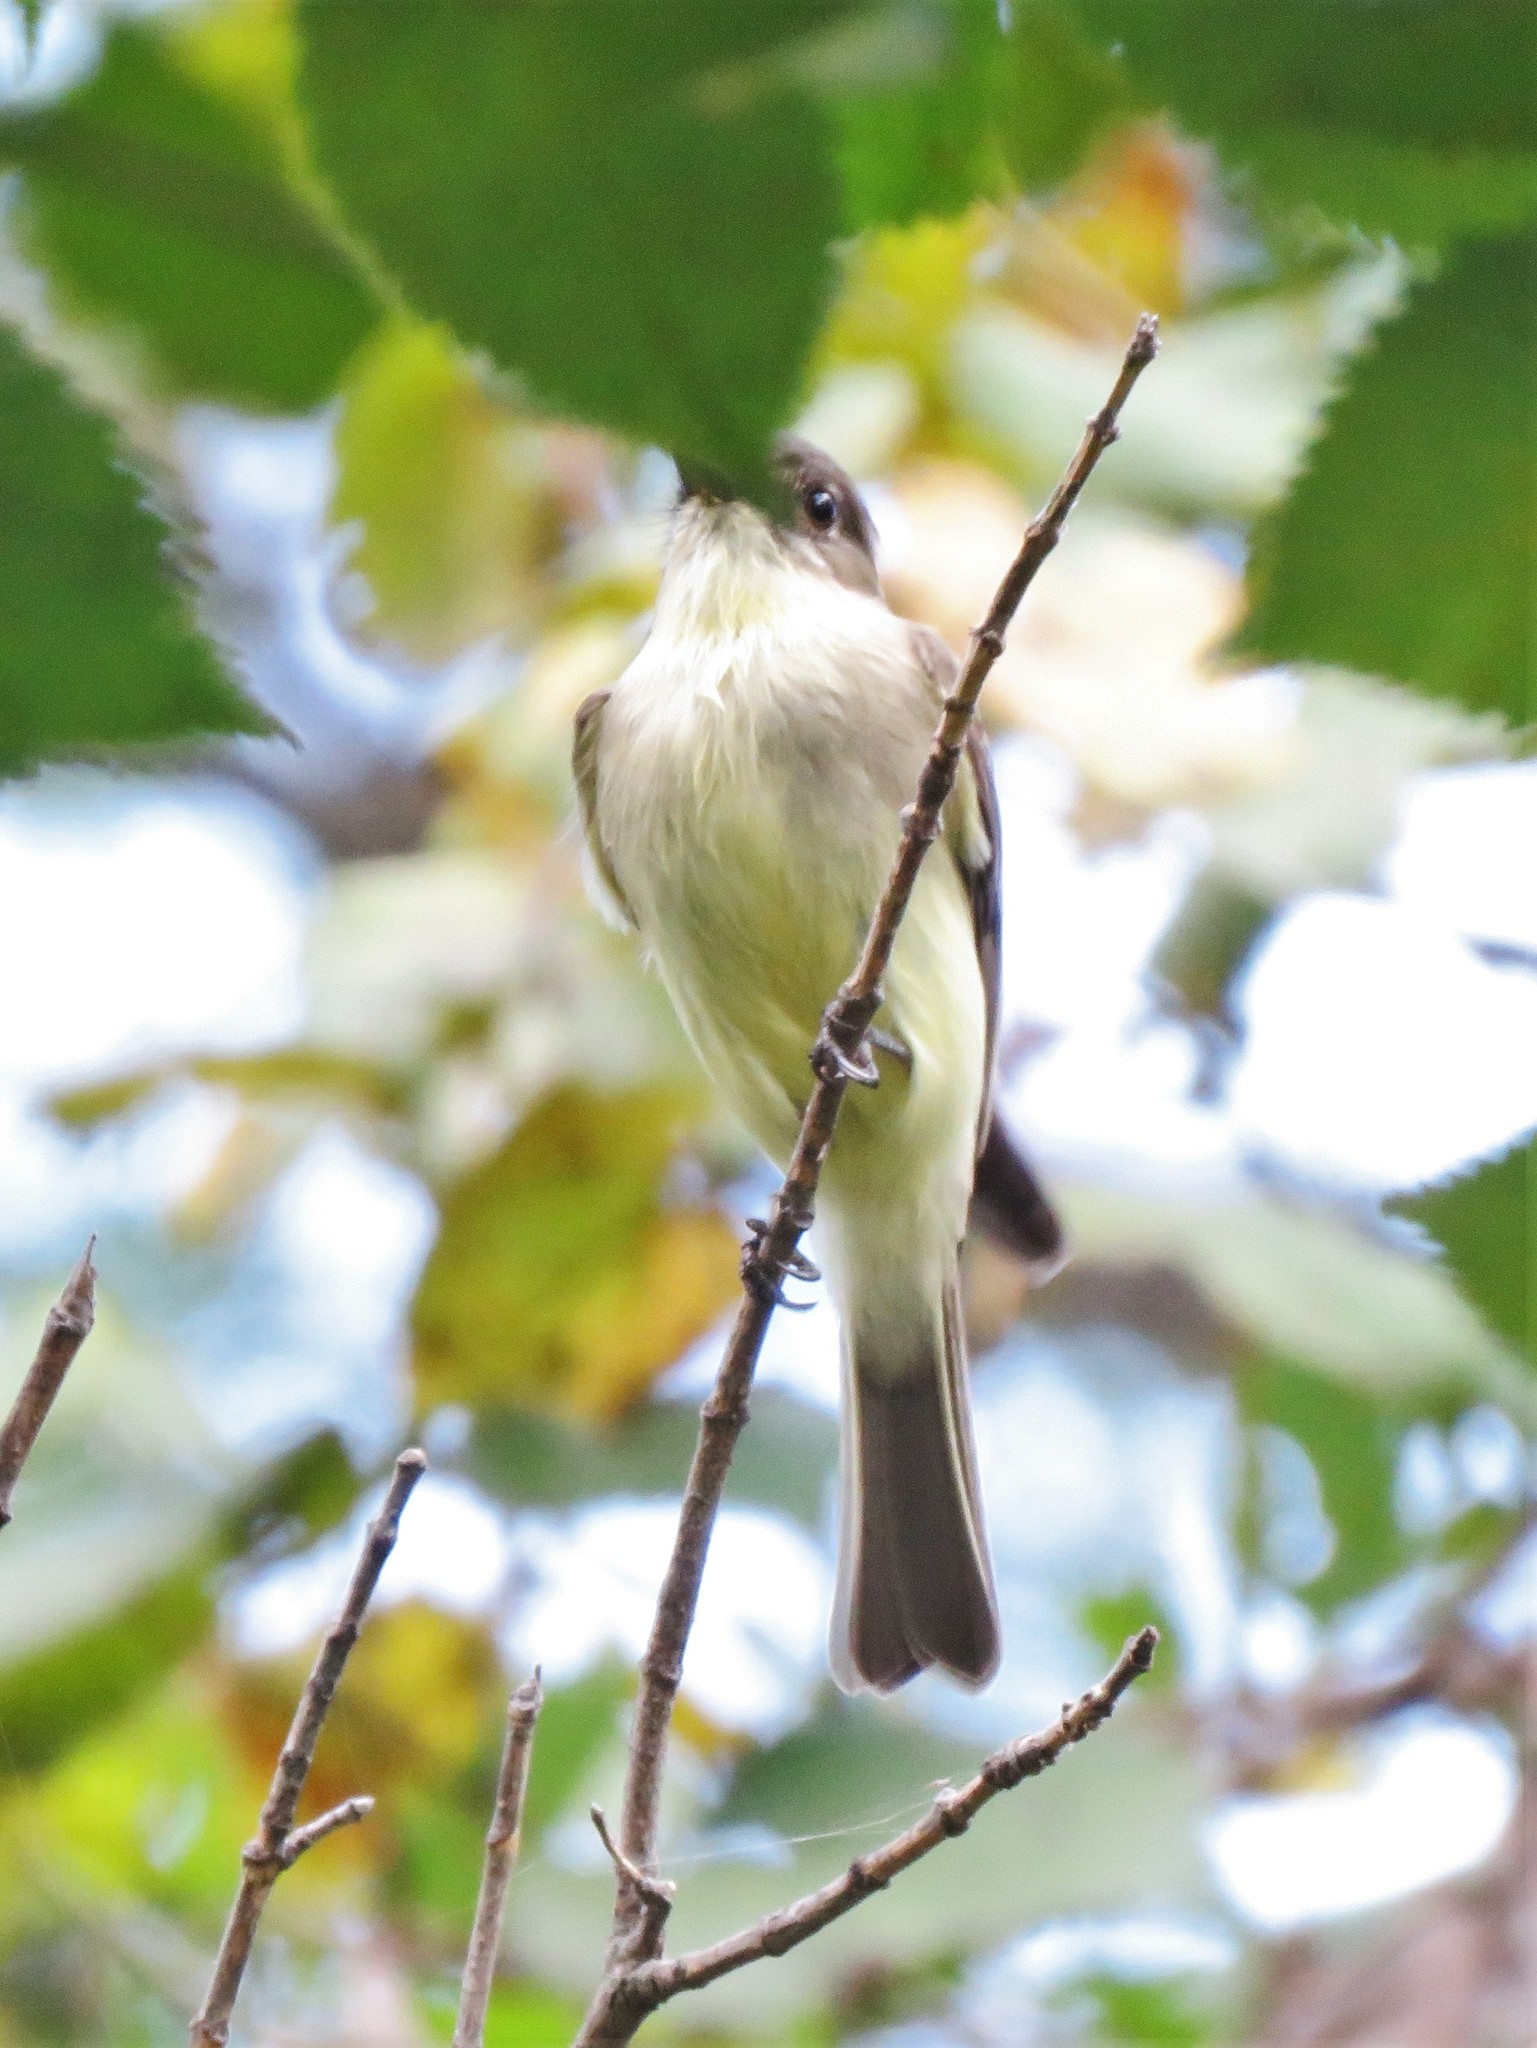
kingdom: Animalia
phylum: Chordata
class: Aves
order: Passeriformes
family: Tyrannidae
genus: Sayornis
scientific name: Sayornis phoebe
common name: Eastern phoebe
